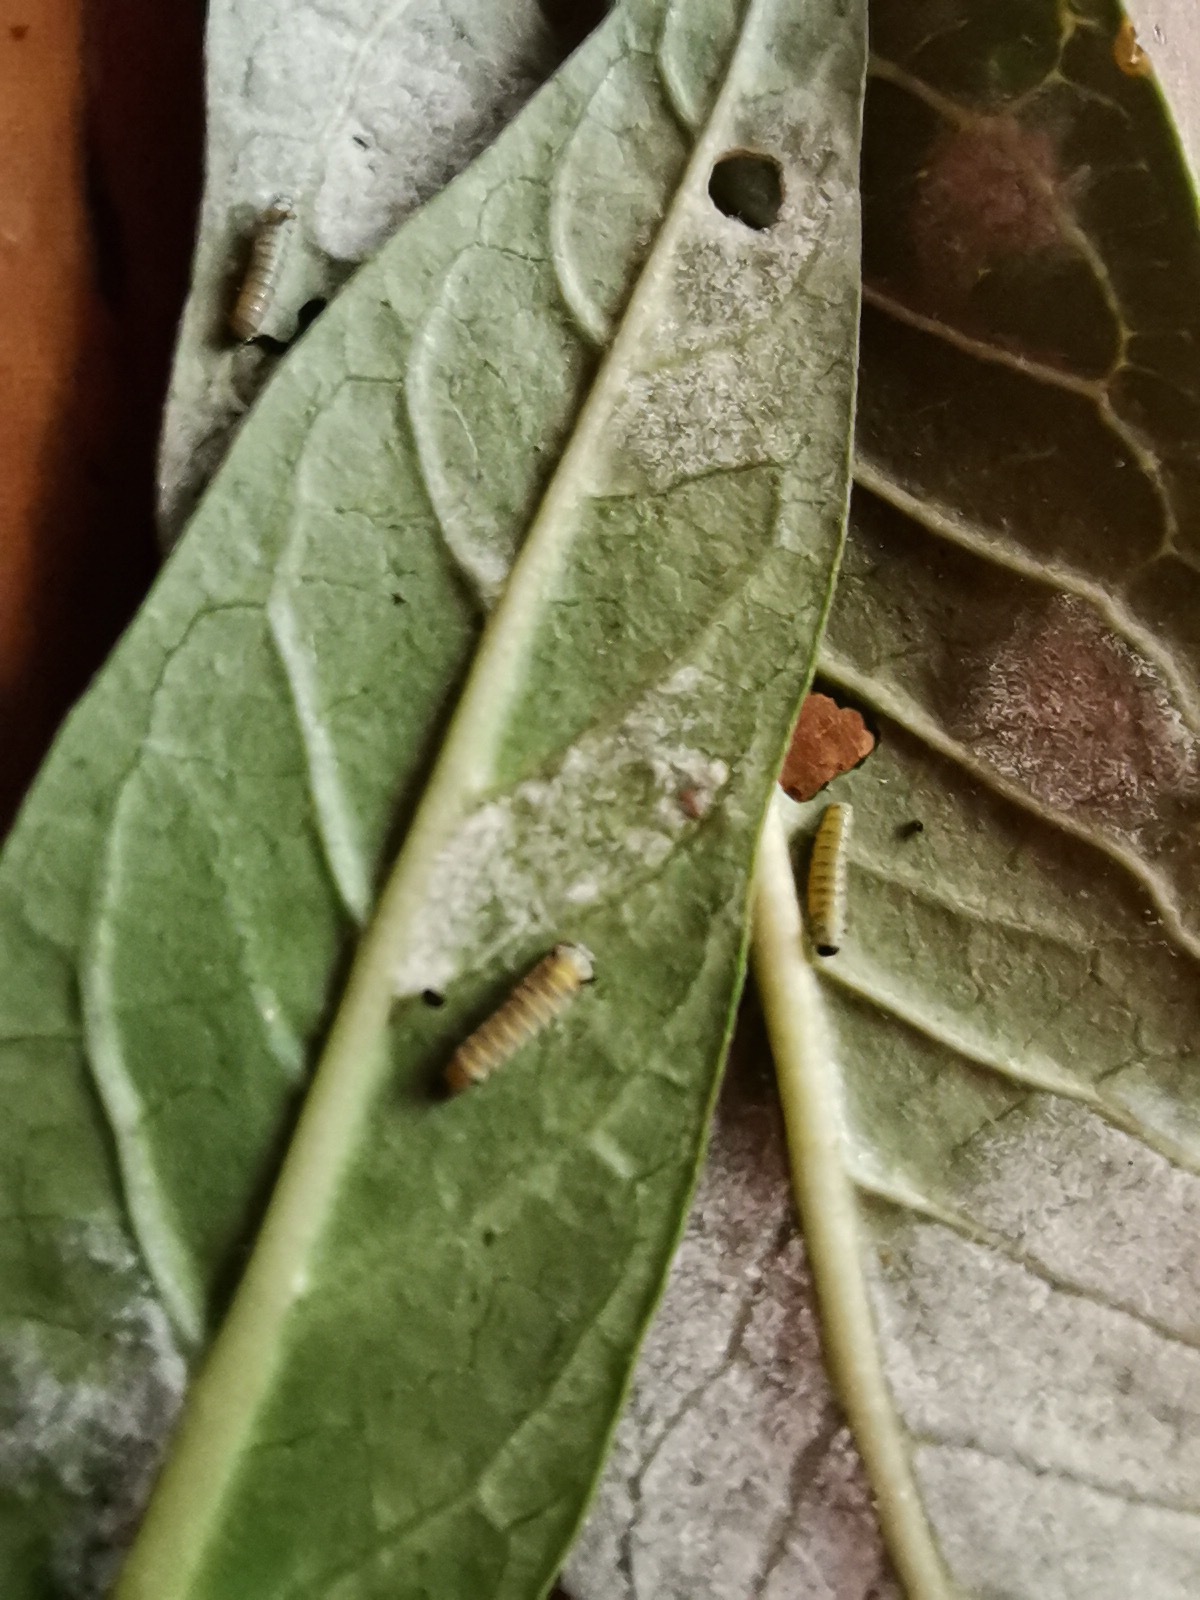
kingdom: Animalia
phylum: Arthropoda
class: Insecta
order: Lepidoptera
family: Nymphalidae
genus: Danaus
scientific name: Danaus plexippus
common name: Monarch
